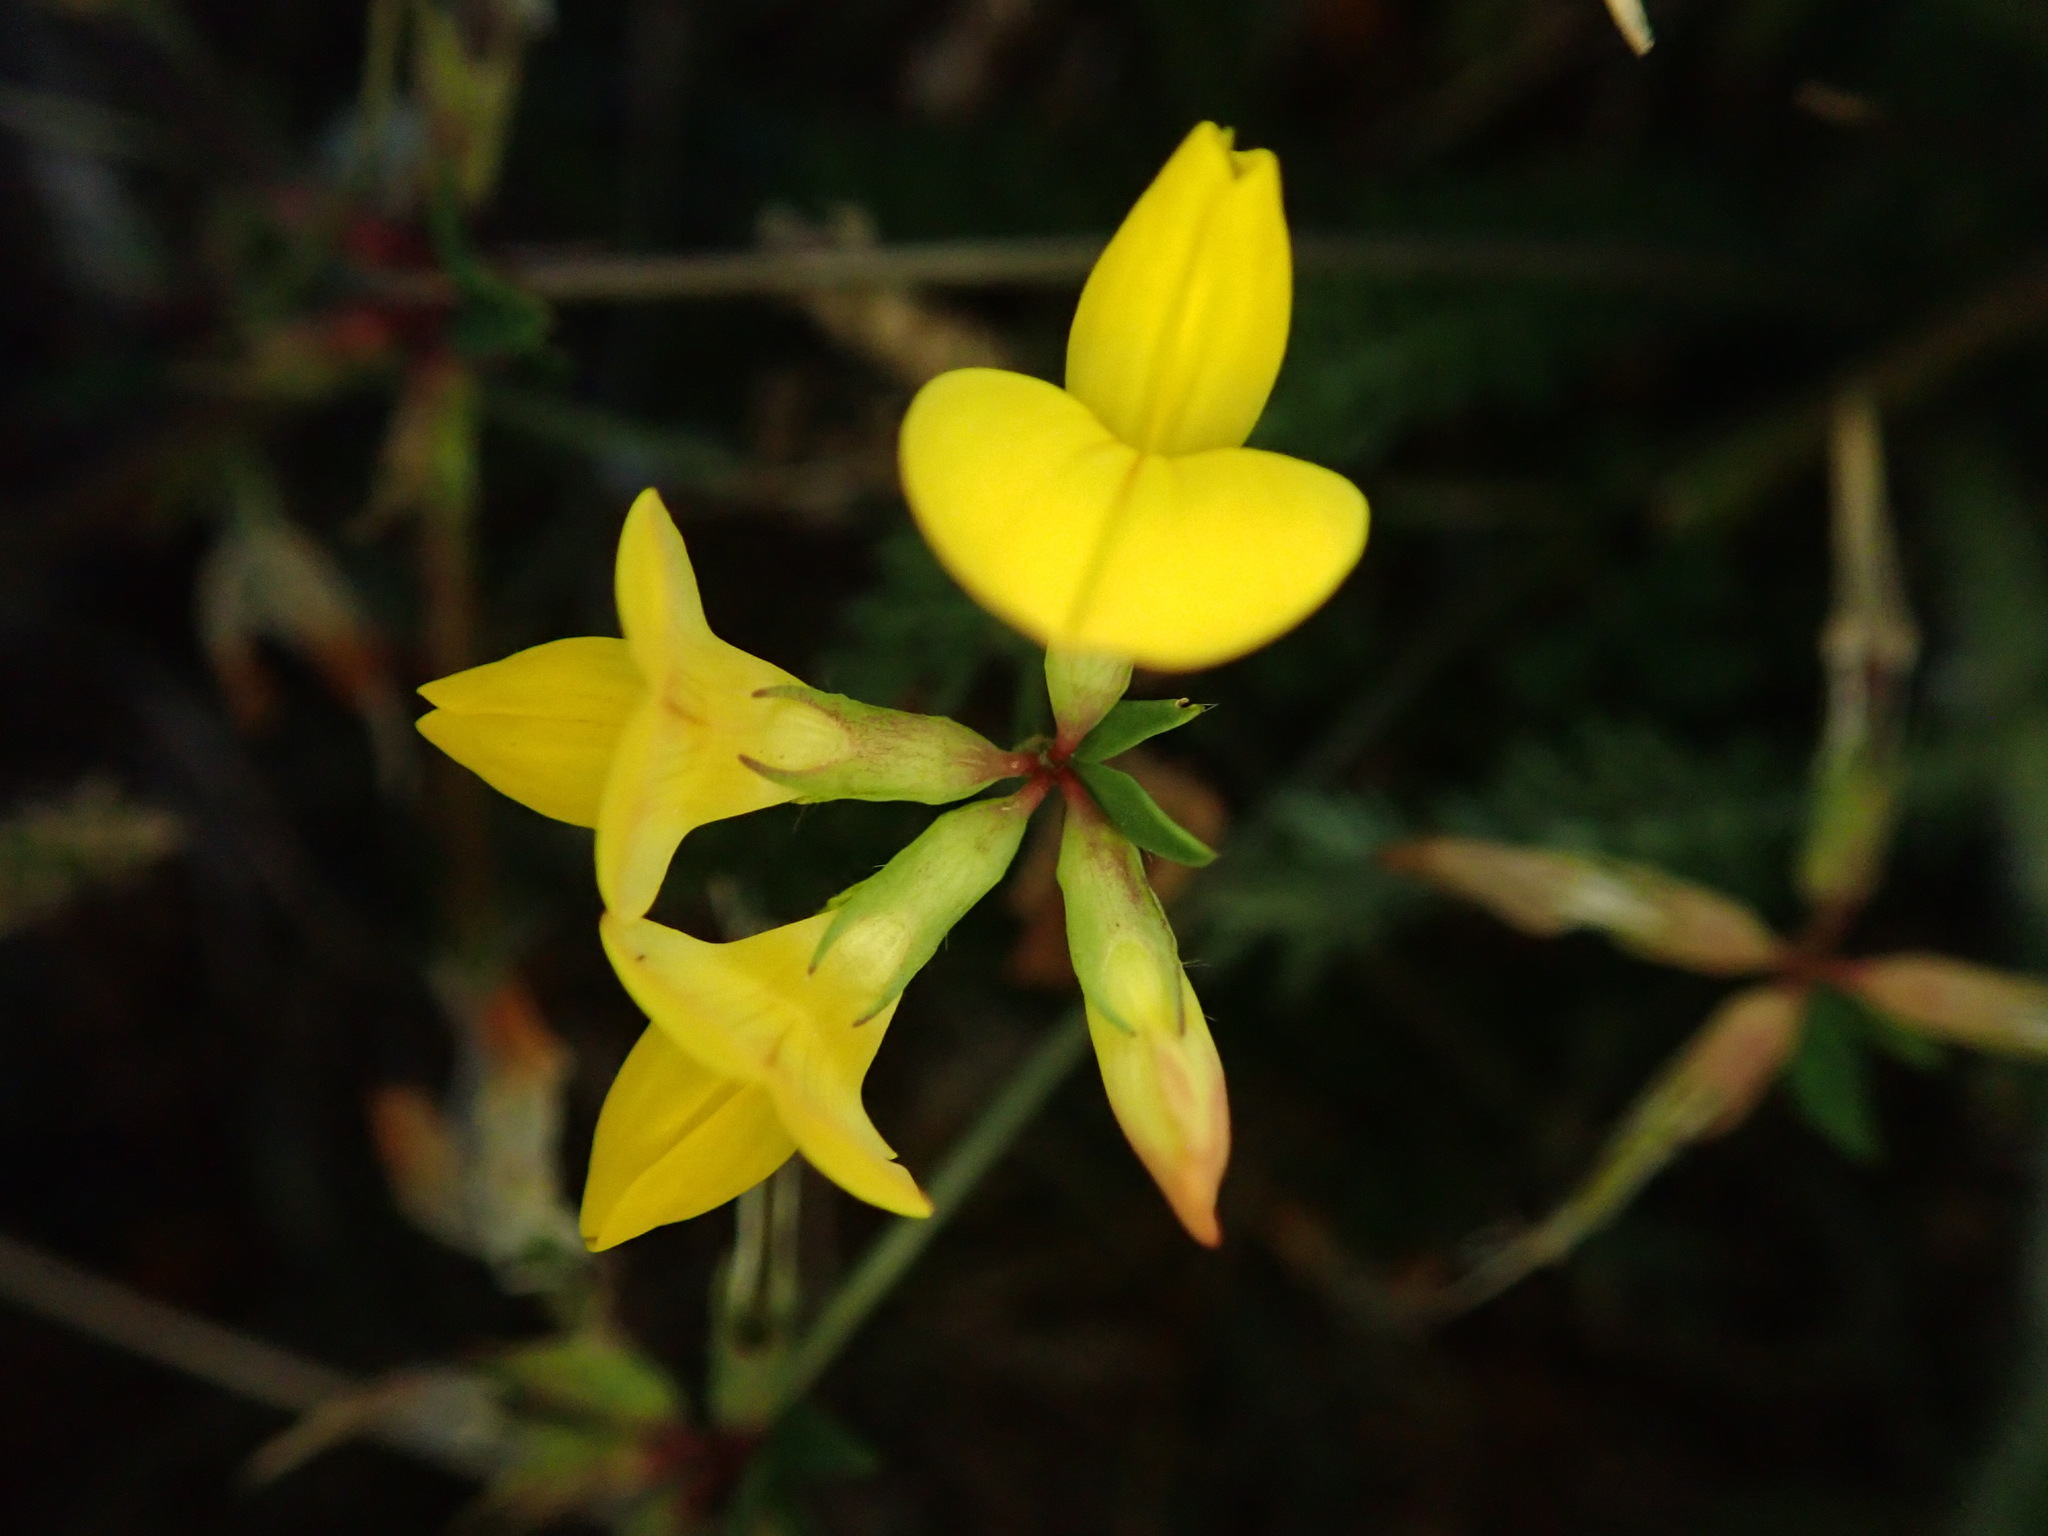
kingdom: Plantae
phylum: Tracheophyta
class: Magnoliopsida
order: Fabales
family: Fabaceae
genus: Lotus
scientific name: Lotus corniculatus
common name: Common bird's-foot-trefoil
